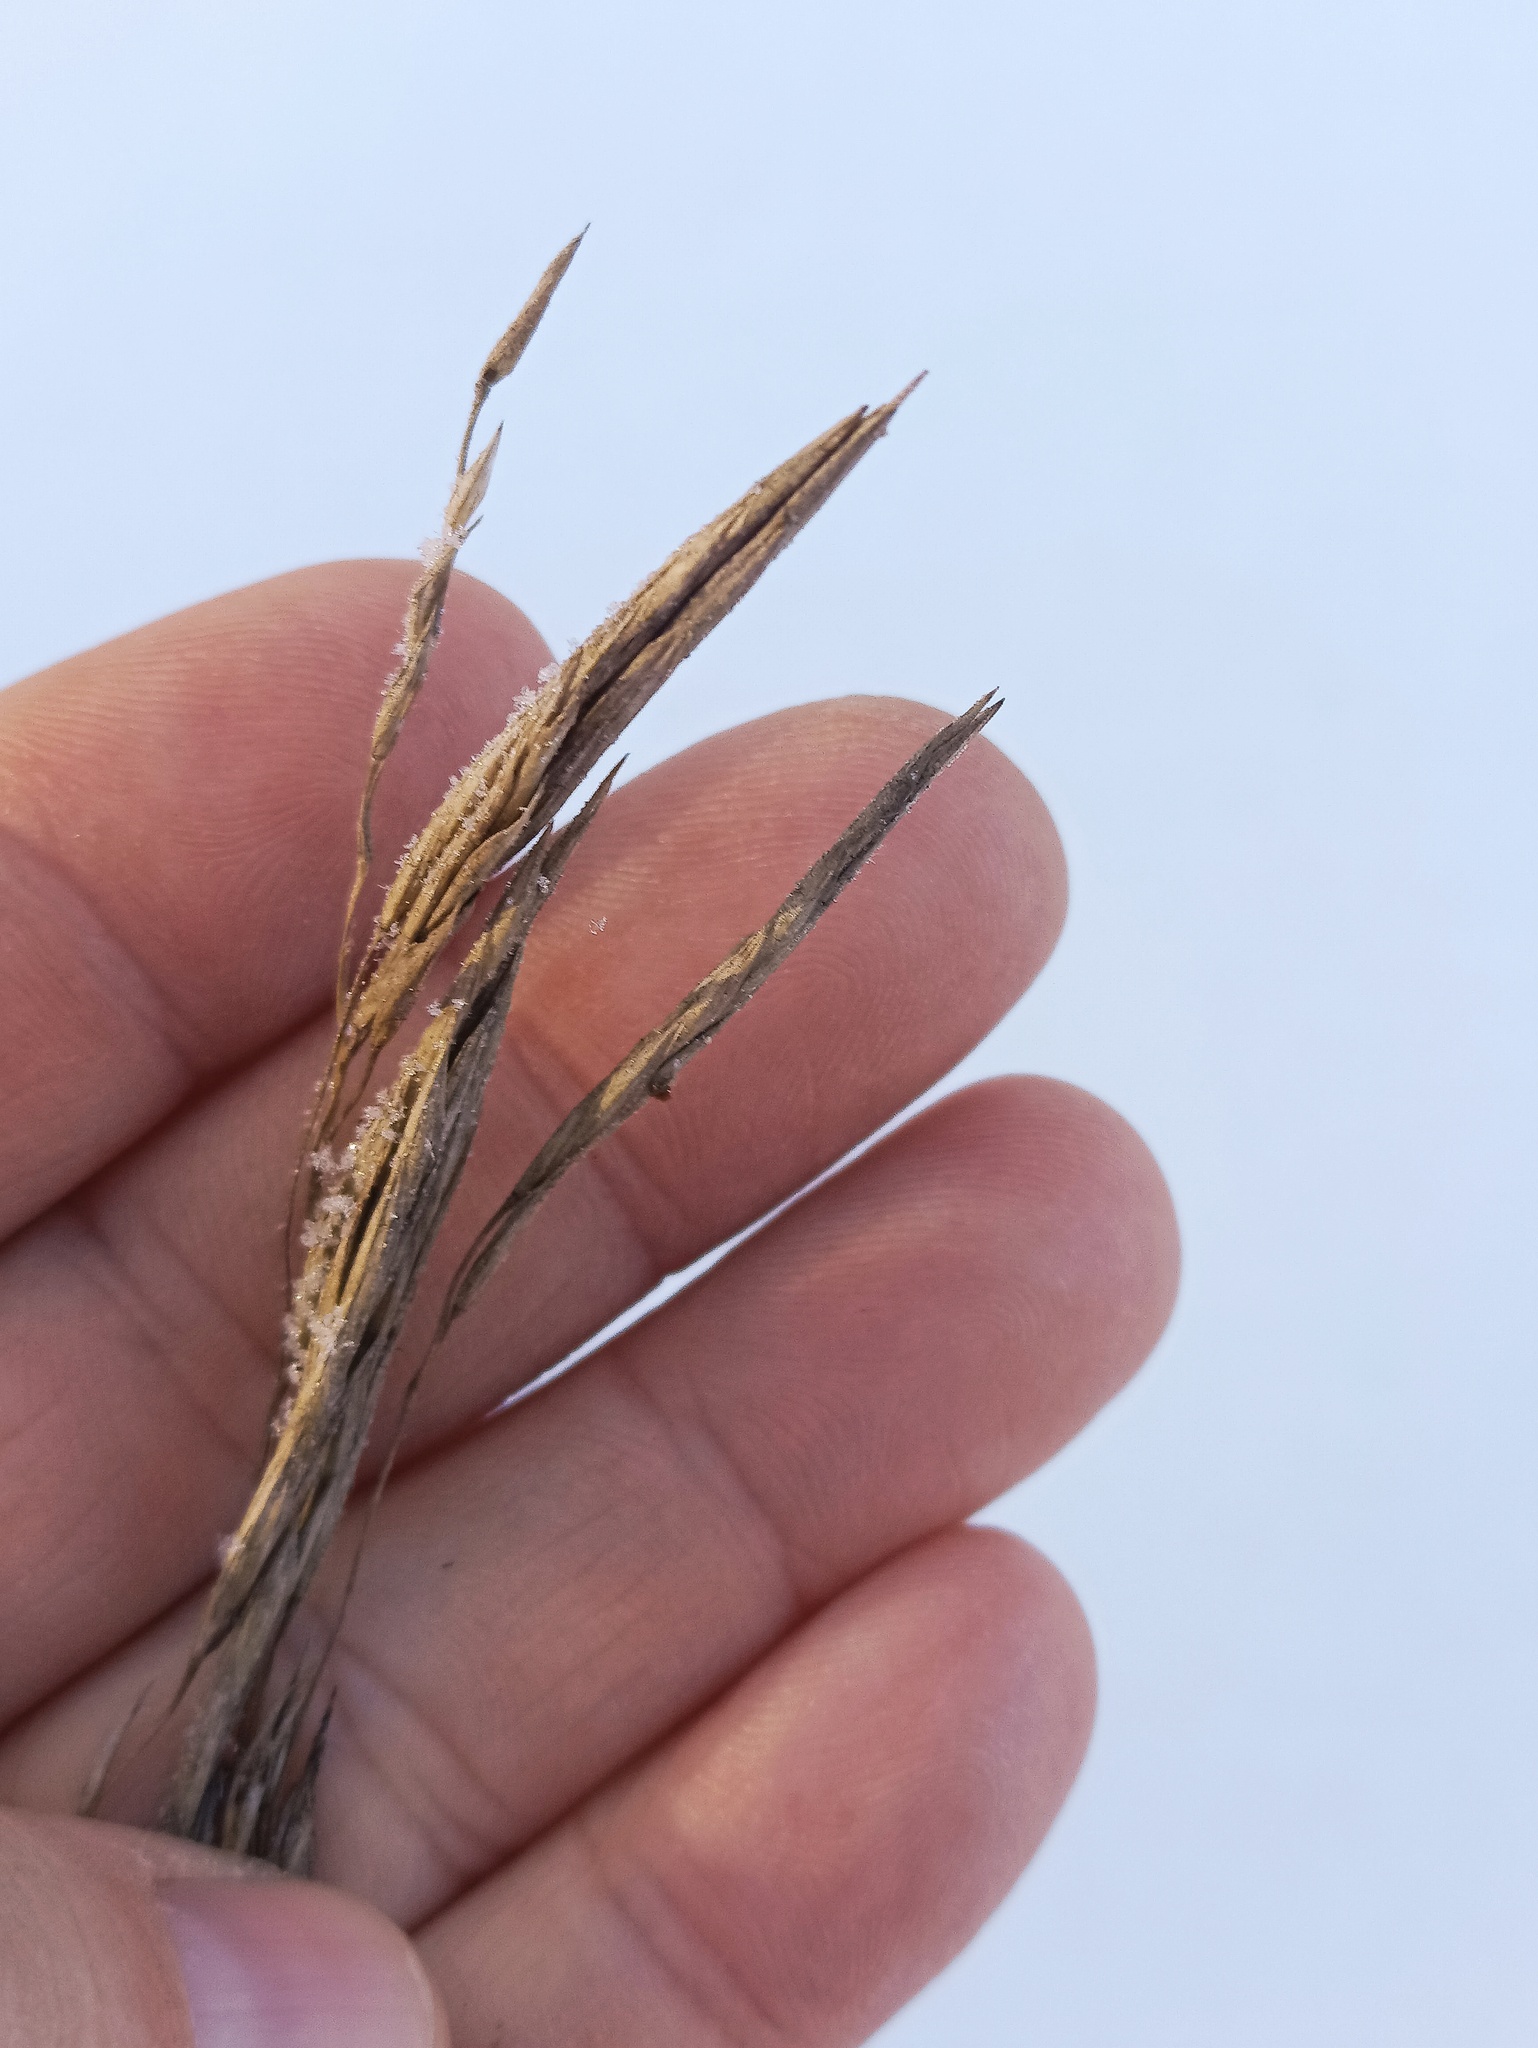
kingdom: Plantae
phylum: Tracheophyta
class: Liliopsida
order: Poales
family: Poaceae
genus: Bromus
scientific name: Bromus inermis
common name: Smooth brome
